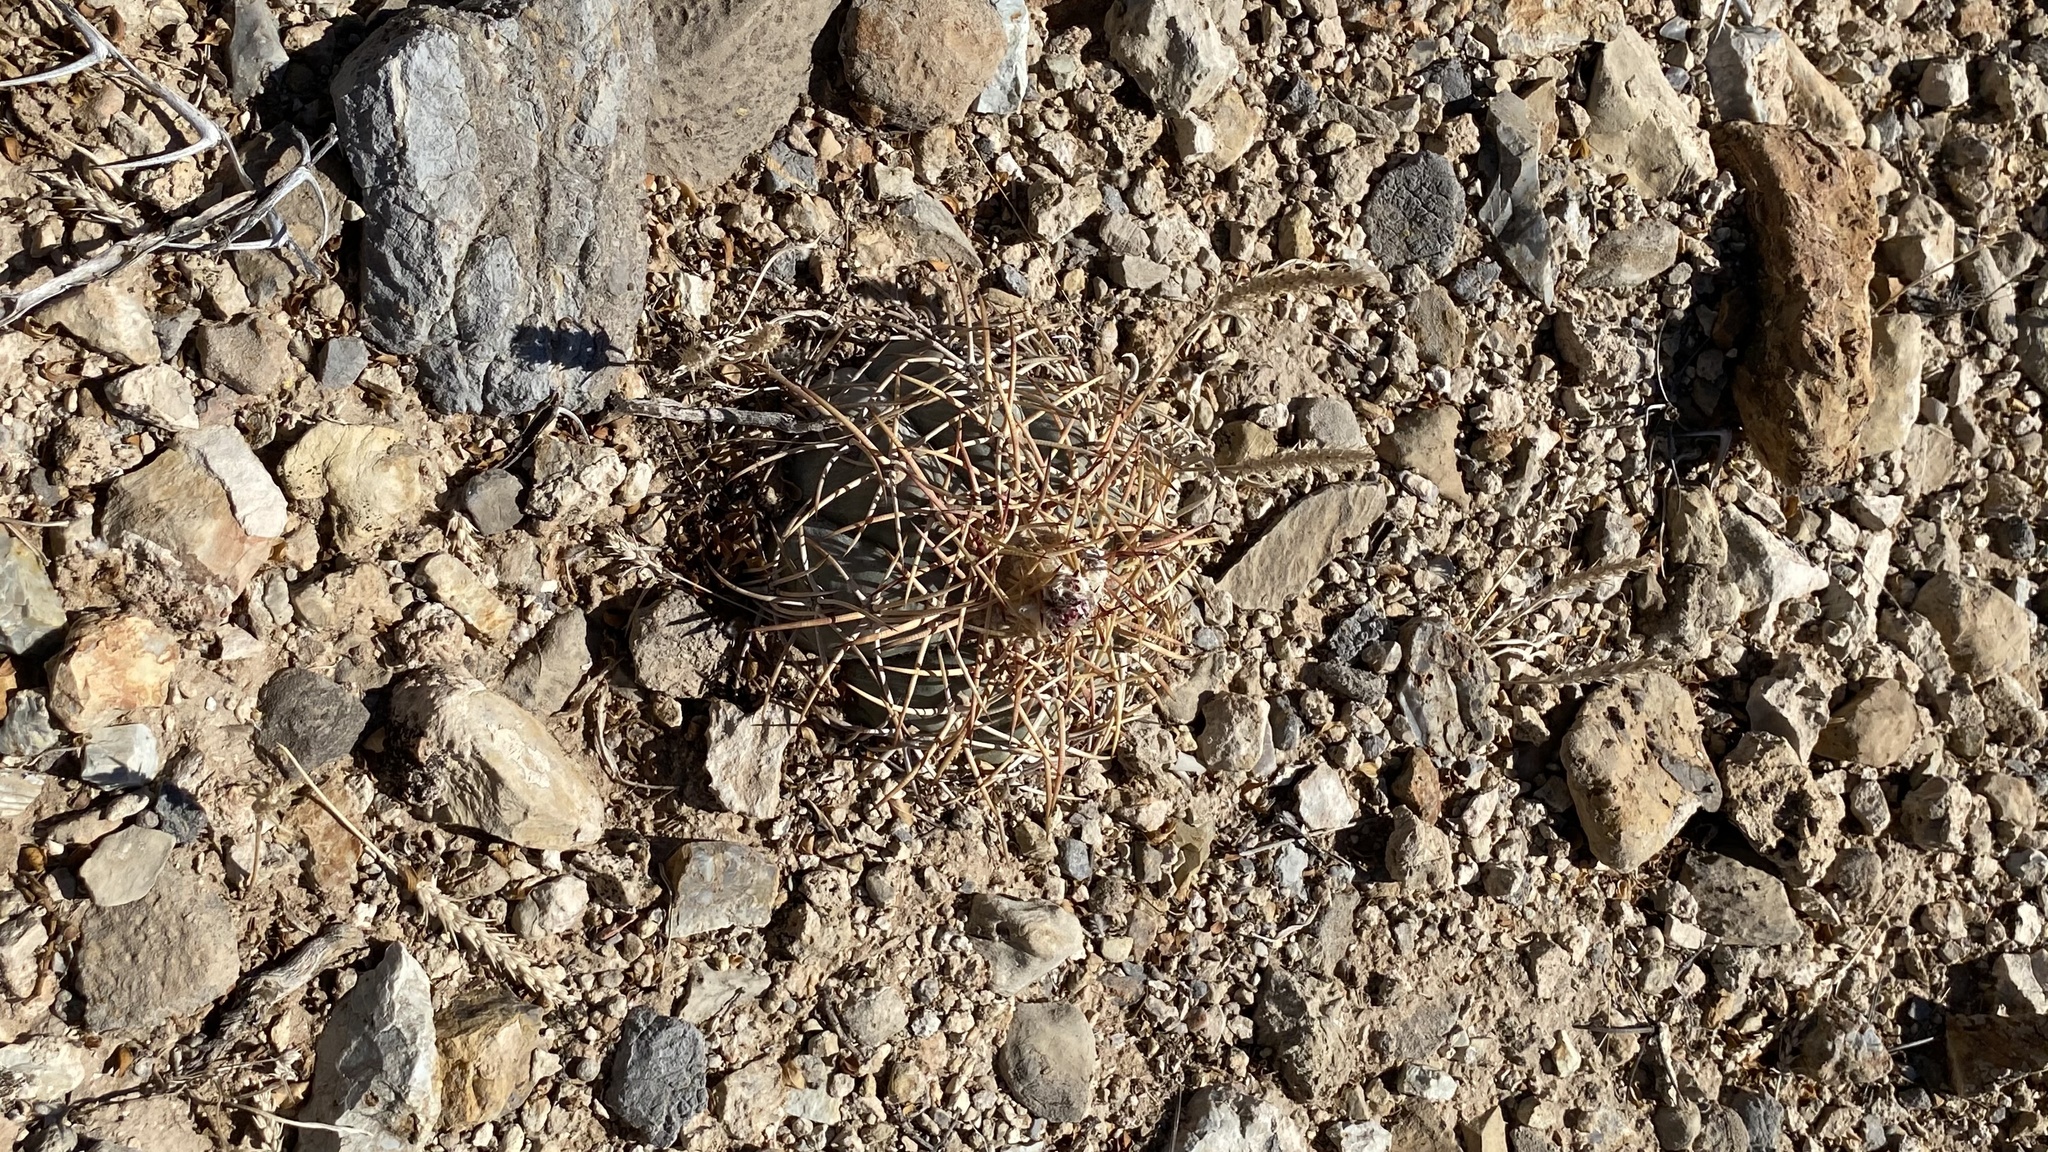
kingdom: Plantae
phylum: Tracheophyta
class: Magnoliopsida
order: Caryophyllales
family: Cactaceae
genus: Echinocactus
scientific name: Echinocactus horizonthalonius
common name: Devilshead
